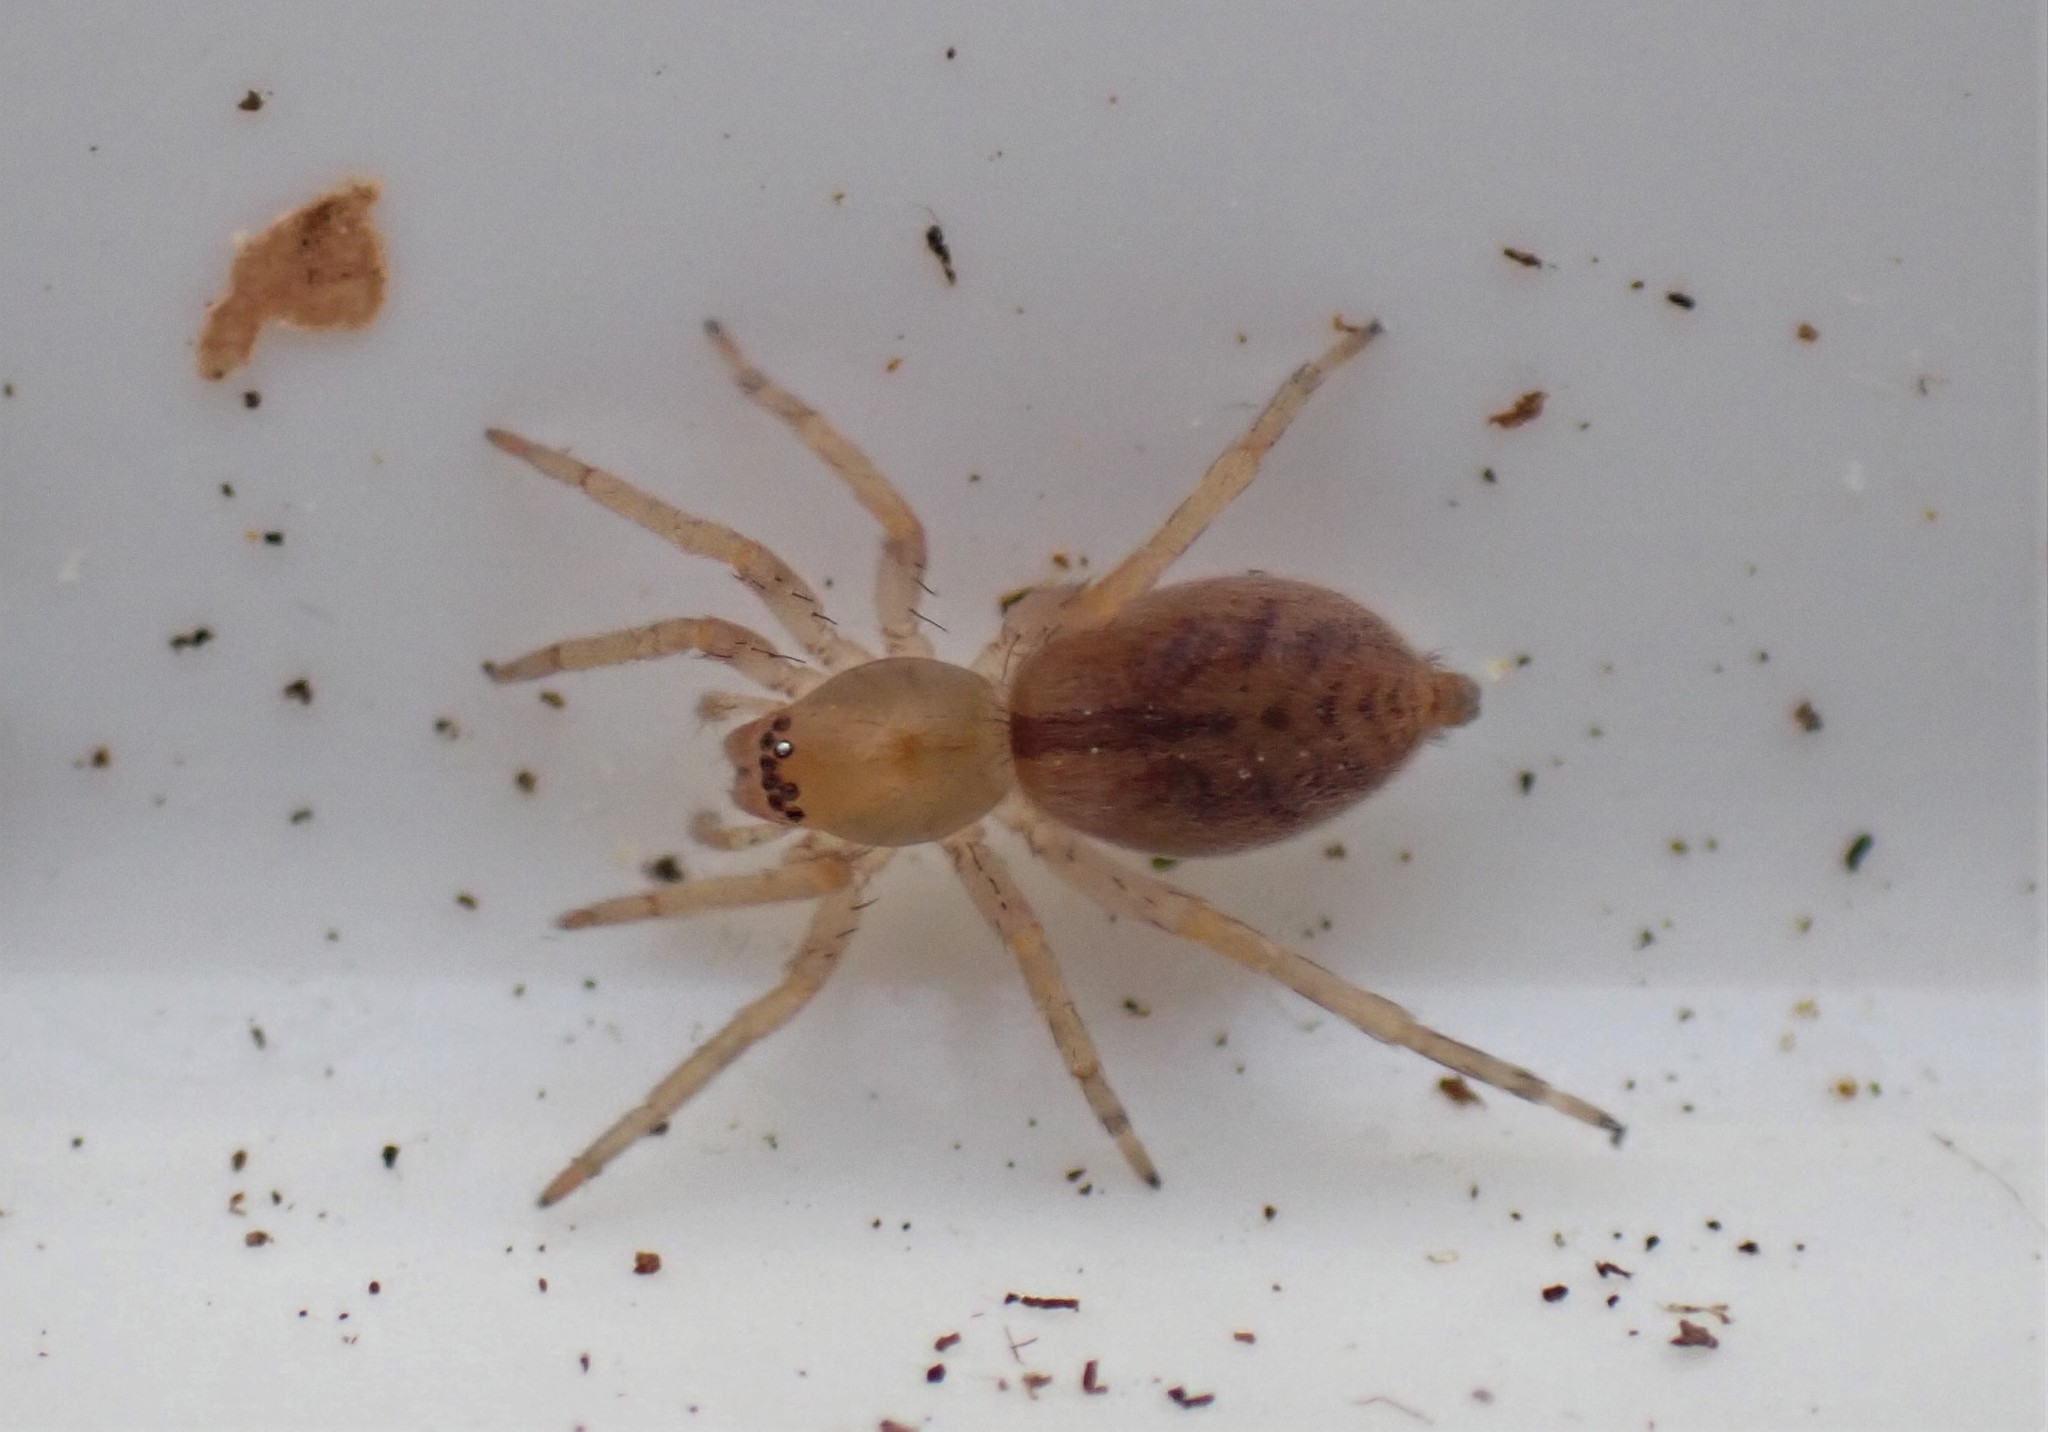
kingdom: Animalia
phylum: Arthropoda
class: Arachnida
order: Araneae
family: Clubionidae
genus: Clubiona
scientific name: Clubiona comta
